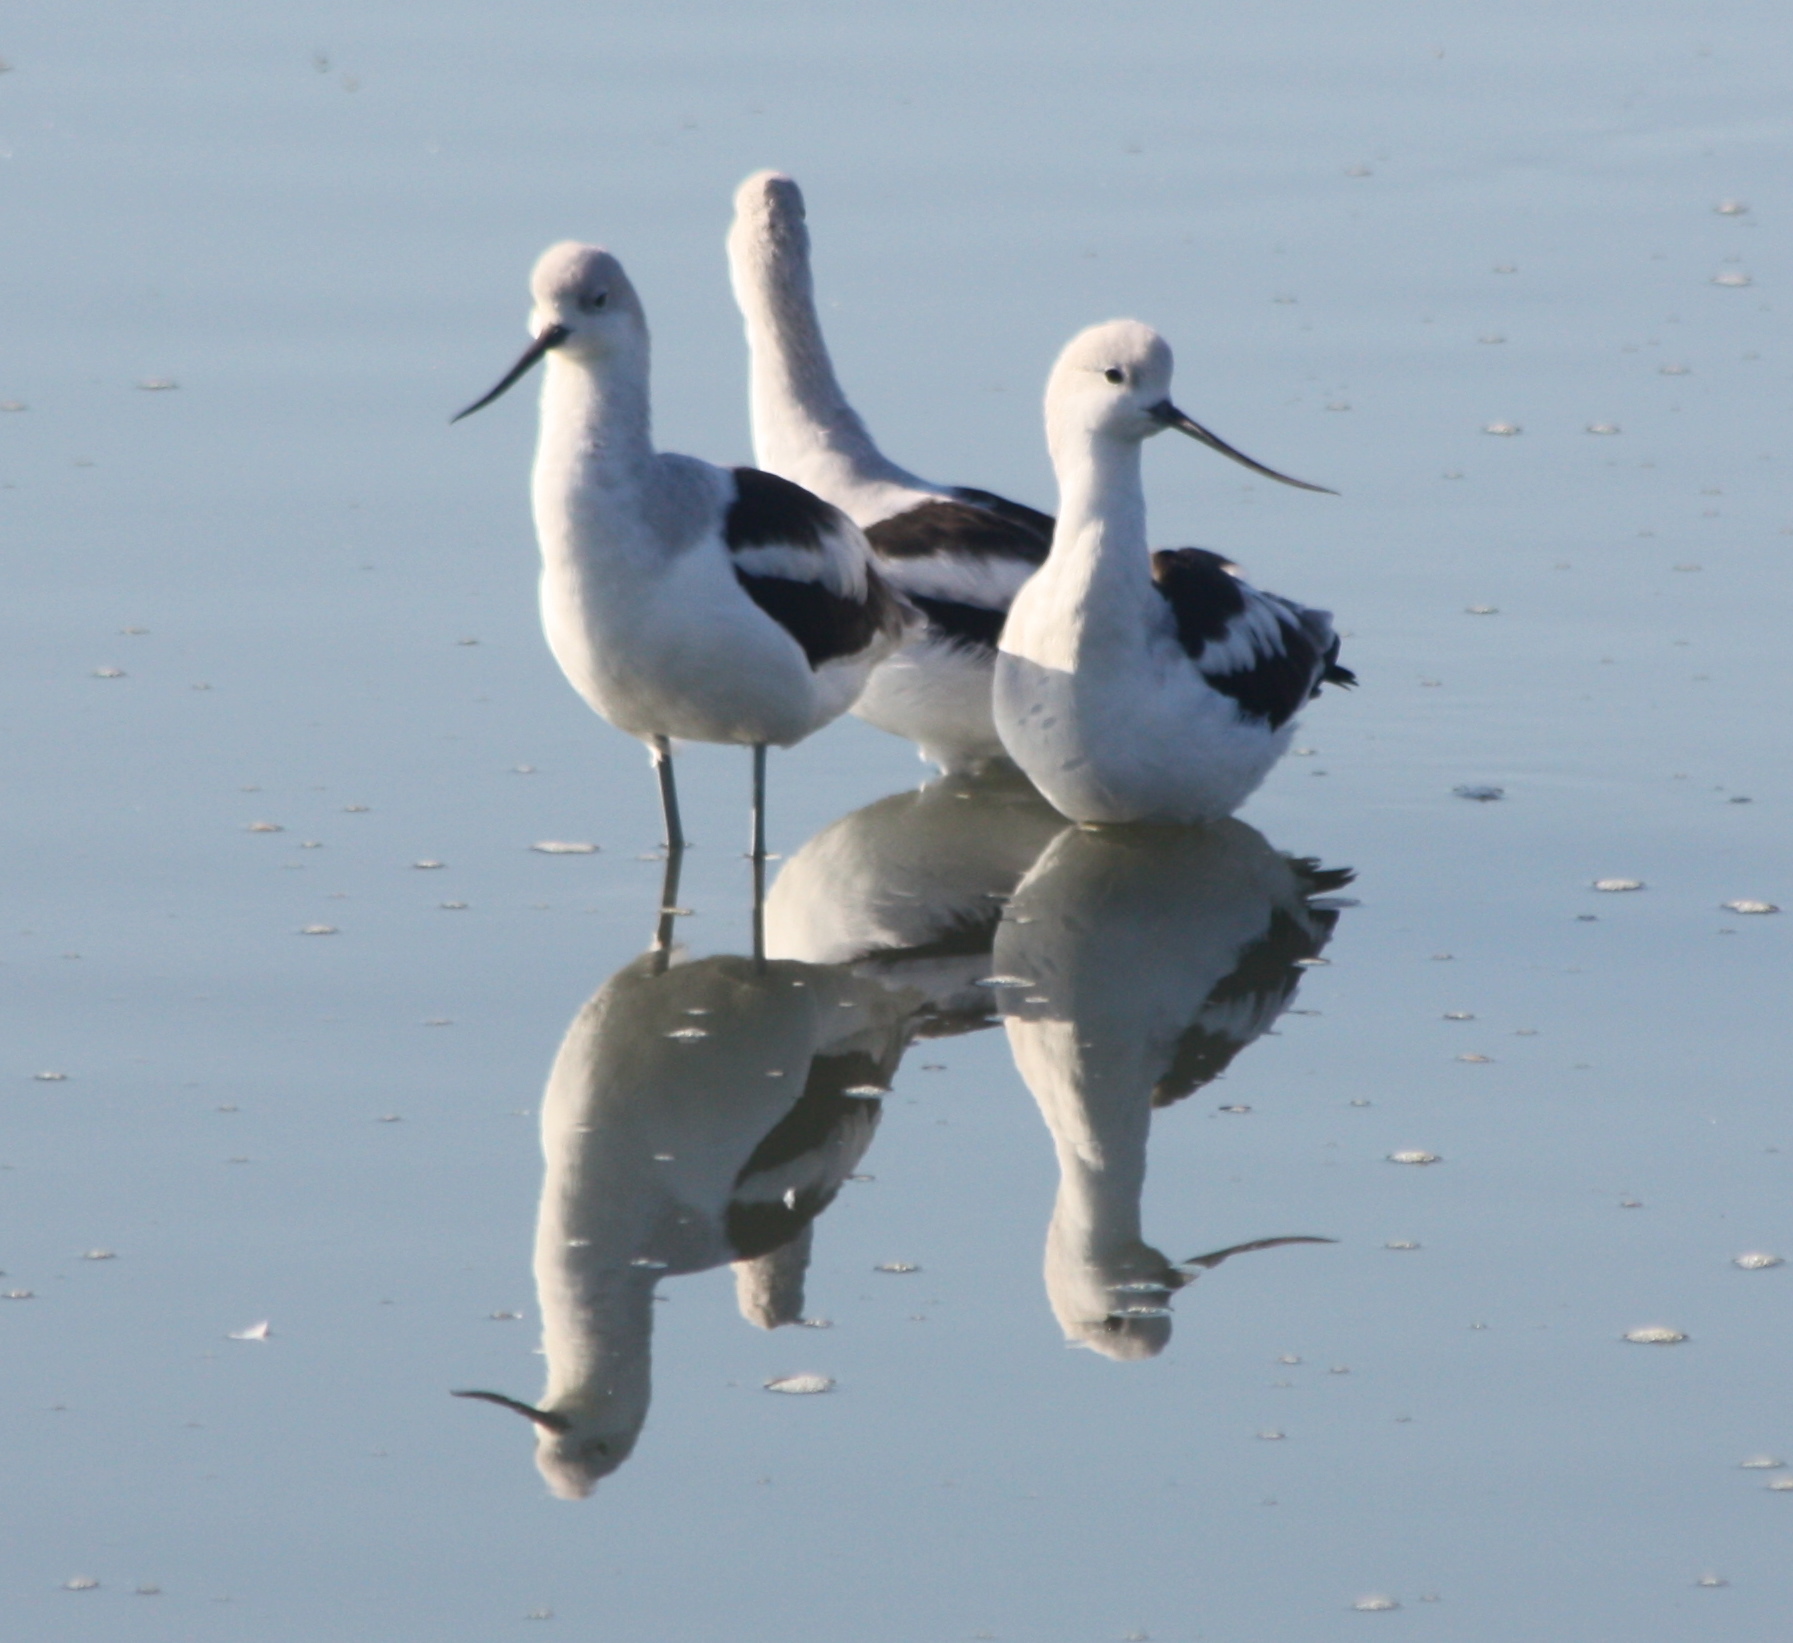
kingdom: Animalia
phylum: Chordata
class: Aves
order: Charadriiformes
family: Recurvirostridae
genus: Recurvirostra
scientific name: Recurvirostra americana
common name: American avocet
